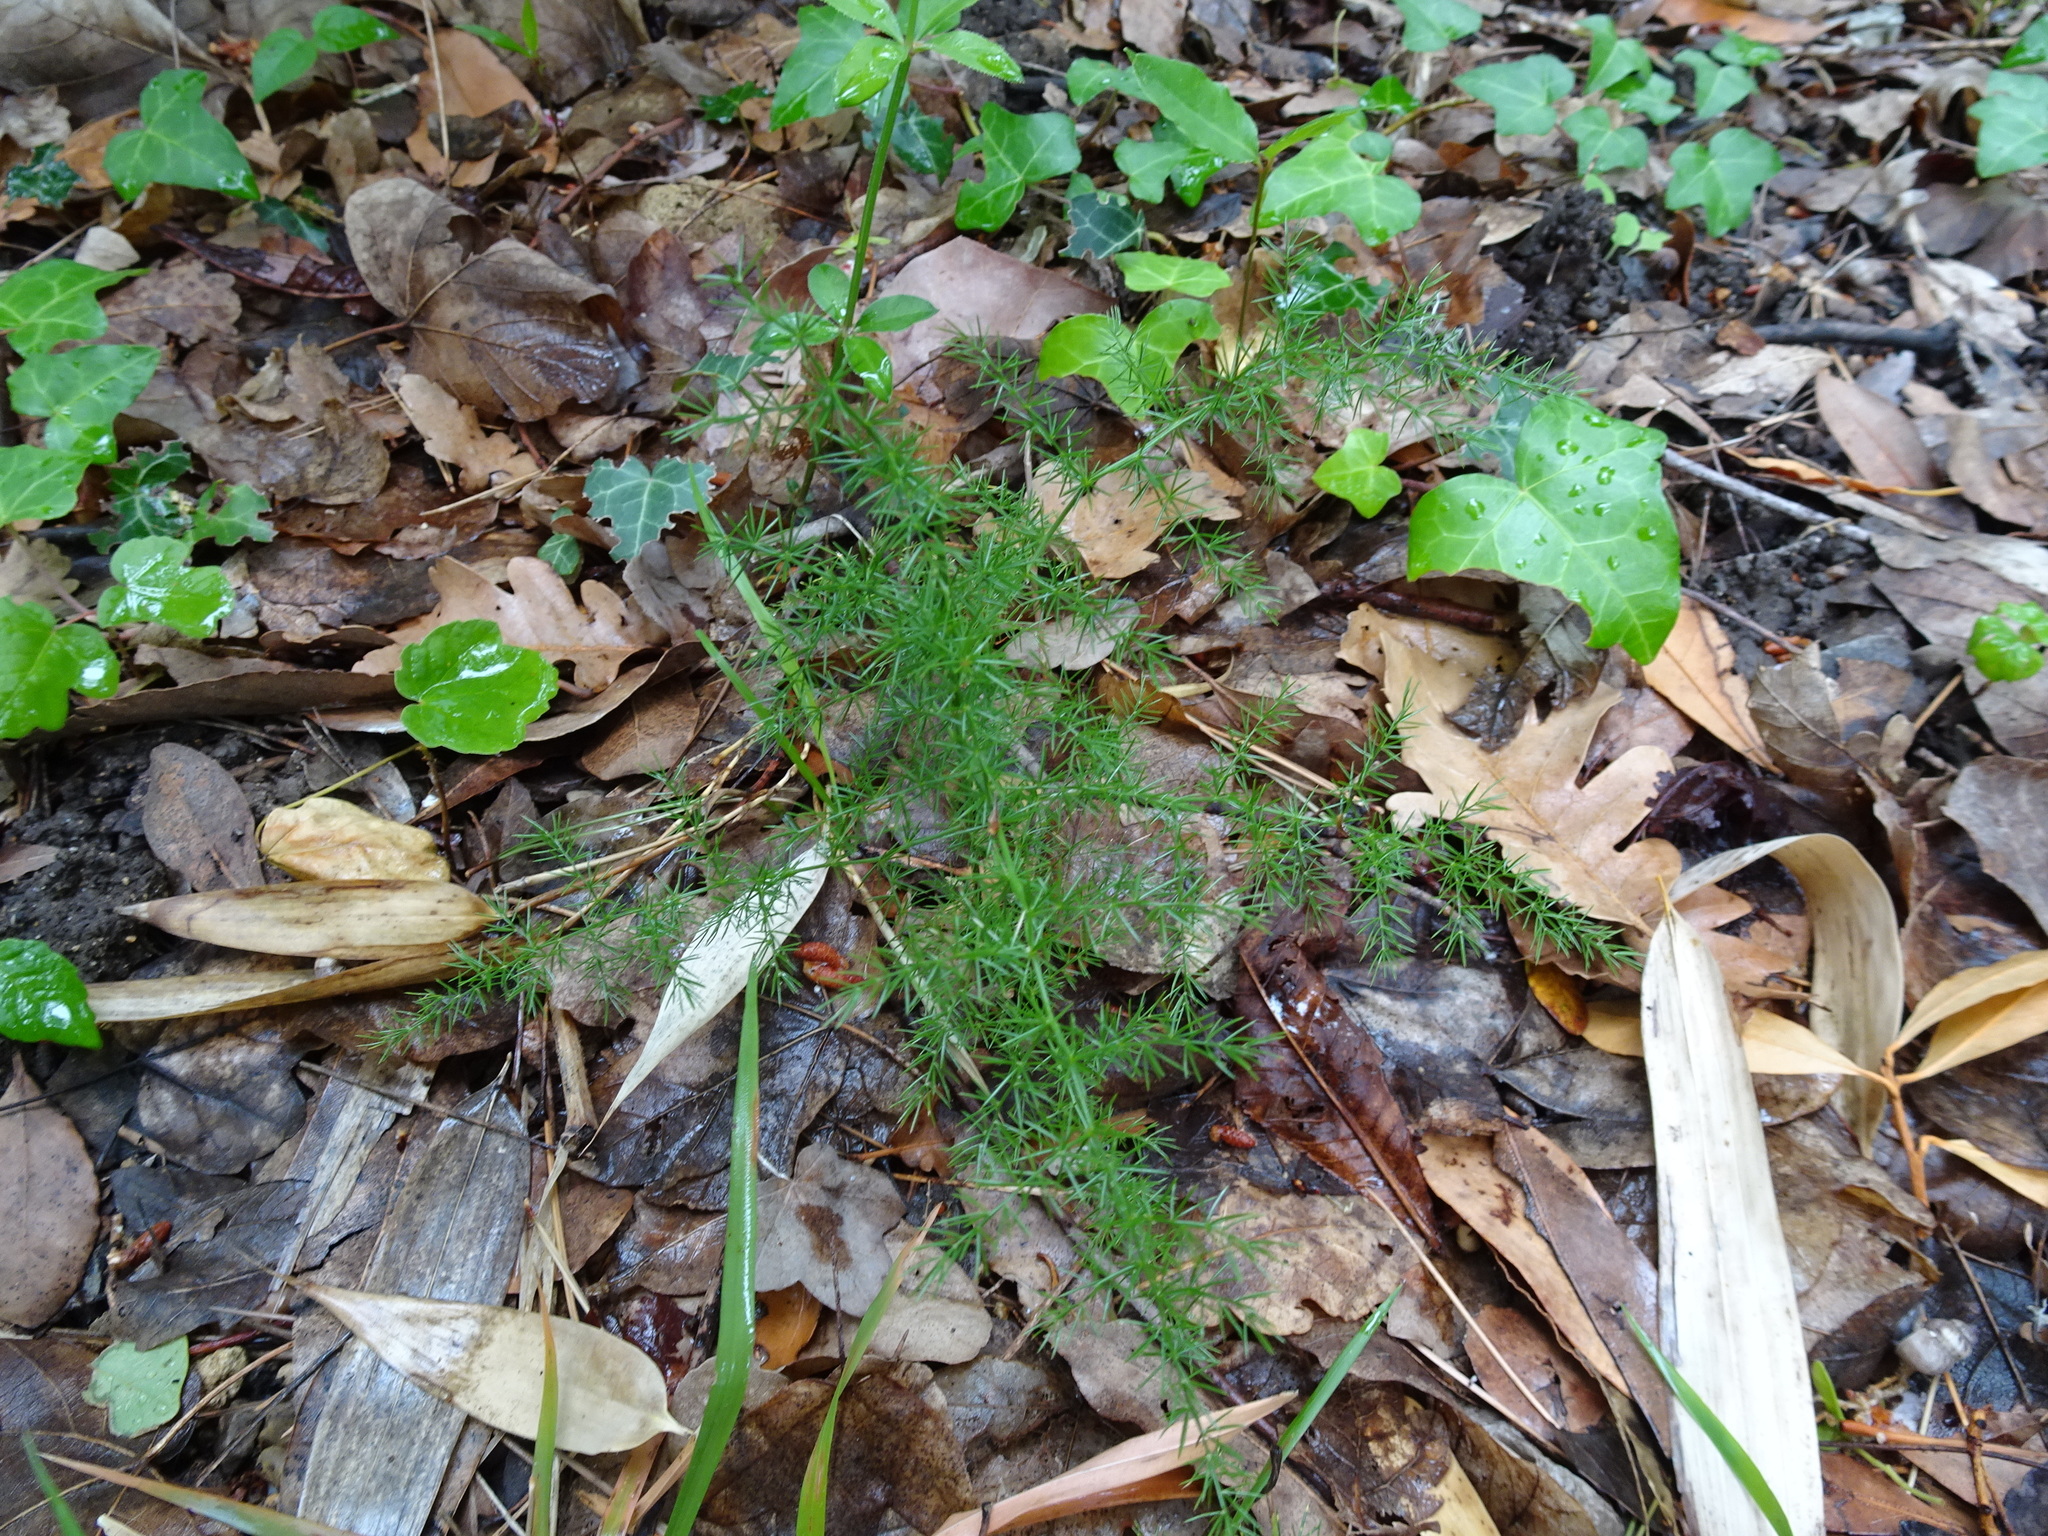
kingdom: Plantae
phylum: Tracheophyta
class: Liliopsida
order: Asparagales
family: Asparagaceae
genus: Asparagus
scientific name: Asparagus acutifolius
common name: Wild asparagus
